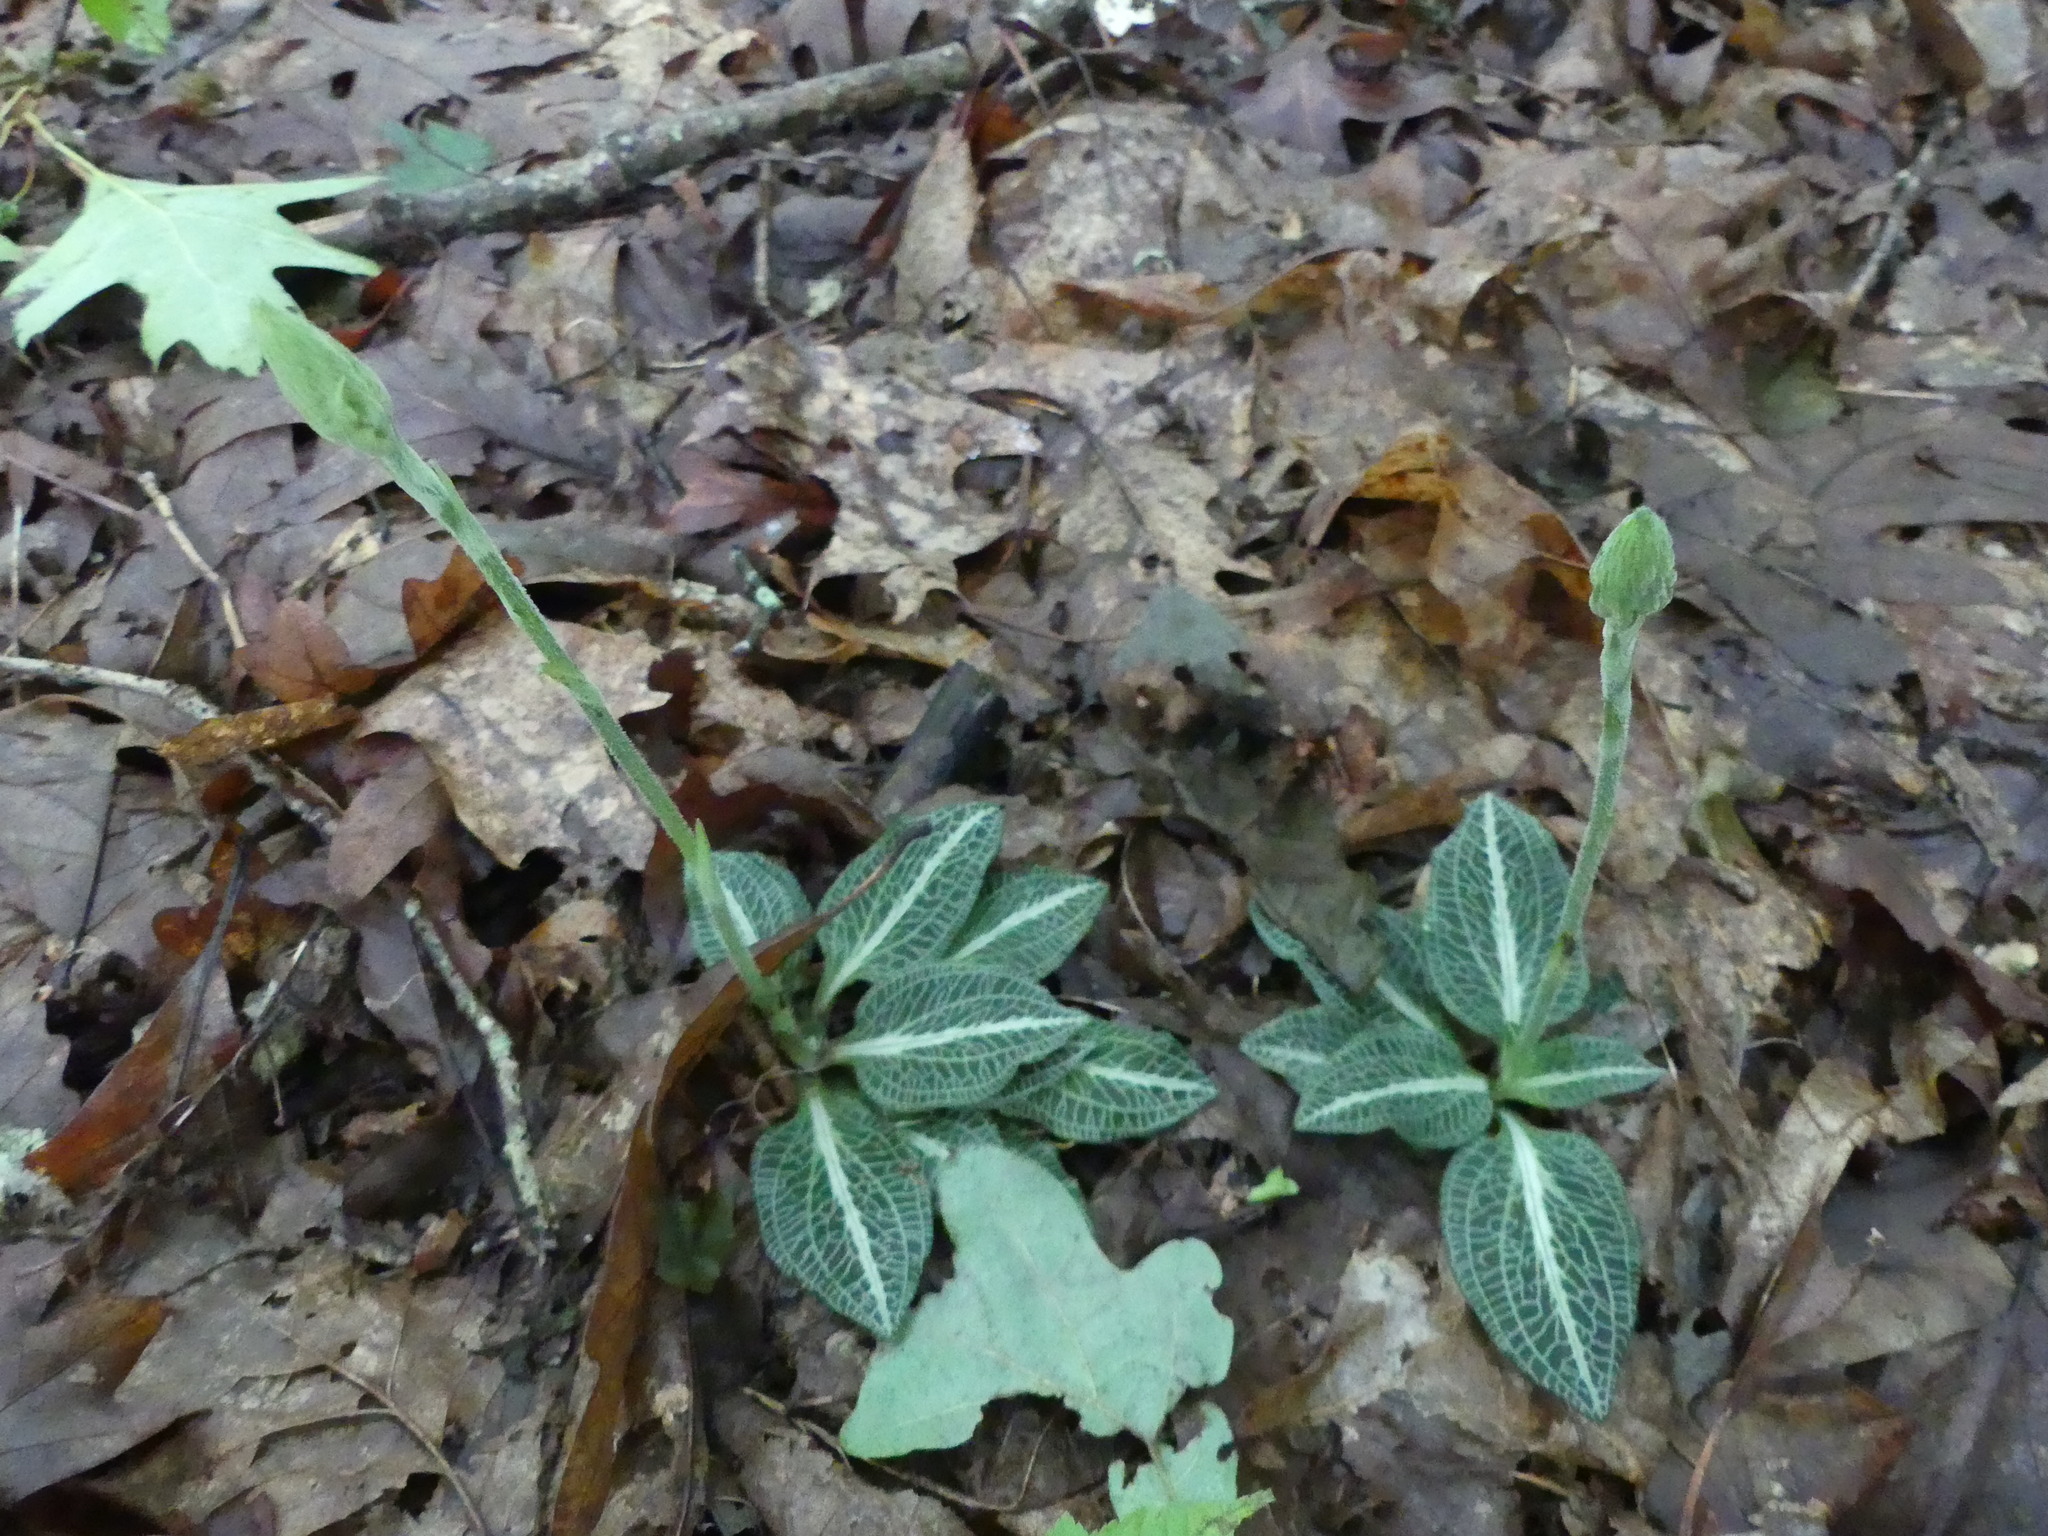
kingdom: Plantae
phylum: Tracheophyta
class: Liliopsida
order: Asparagales
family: Orchidaceae
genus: Goodyera
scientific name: Goodyera pubescens
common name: Downy rattlesnake-plantain
